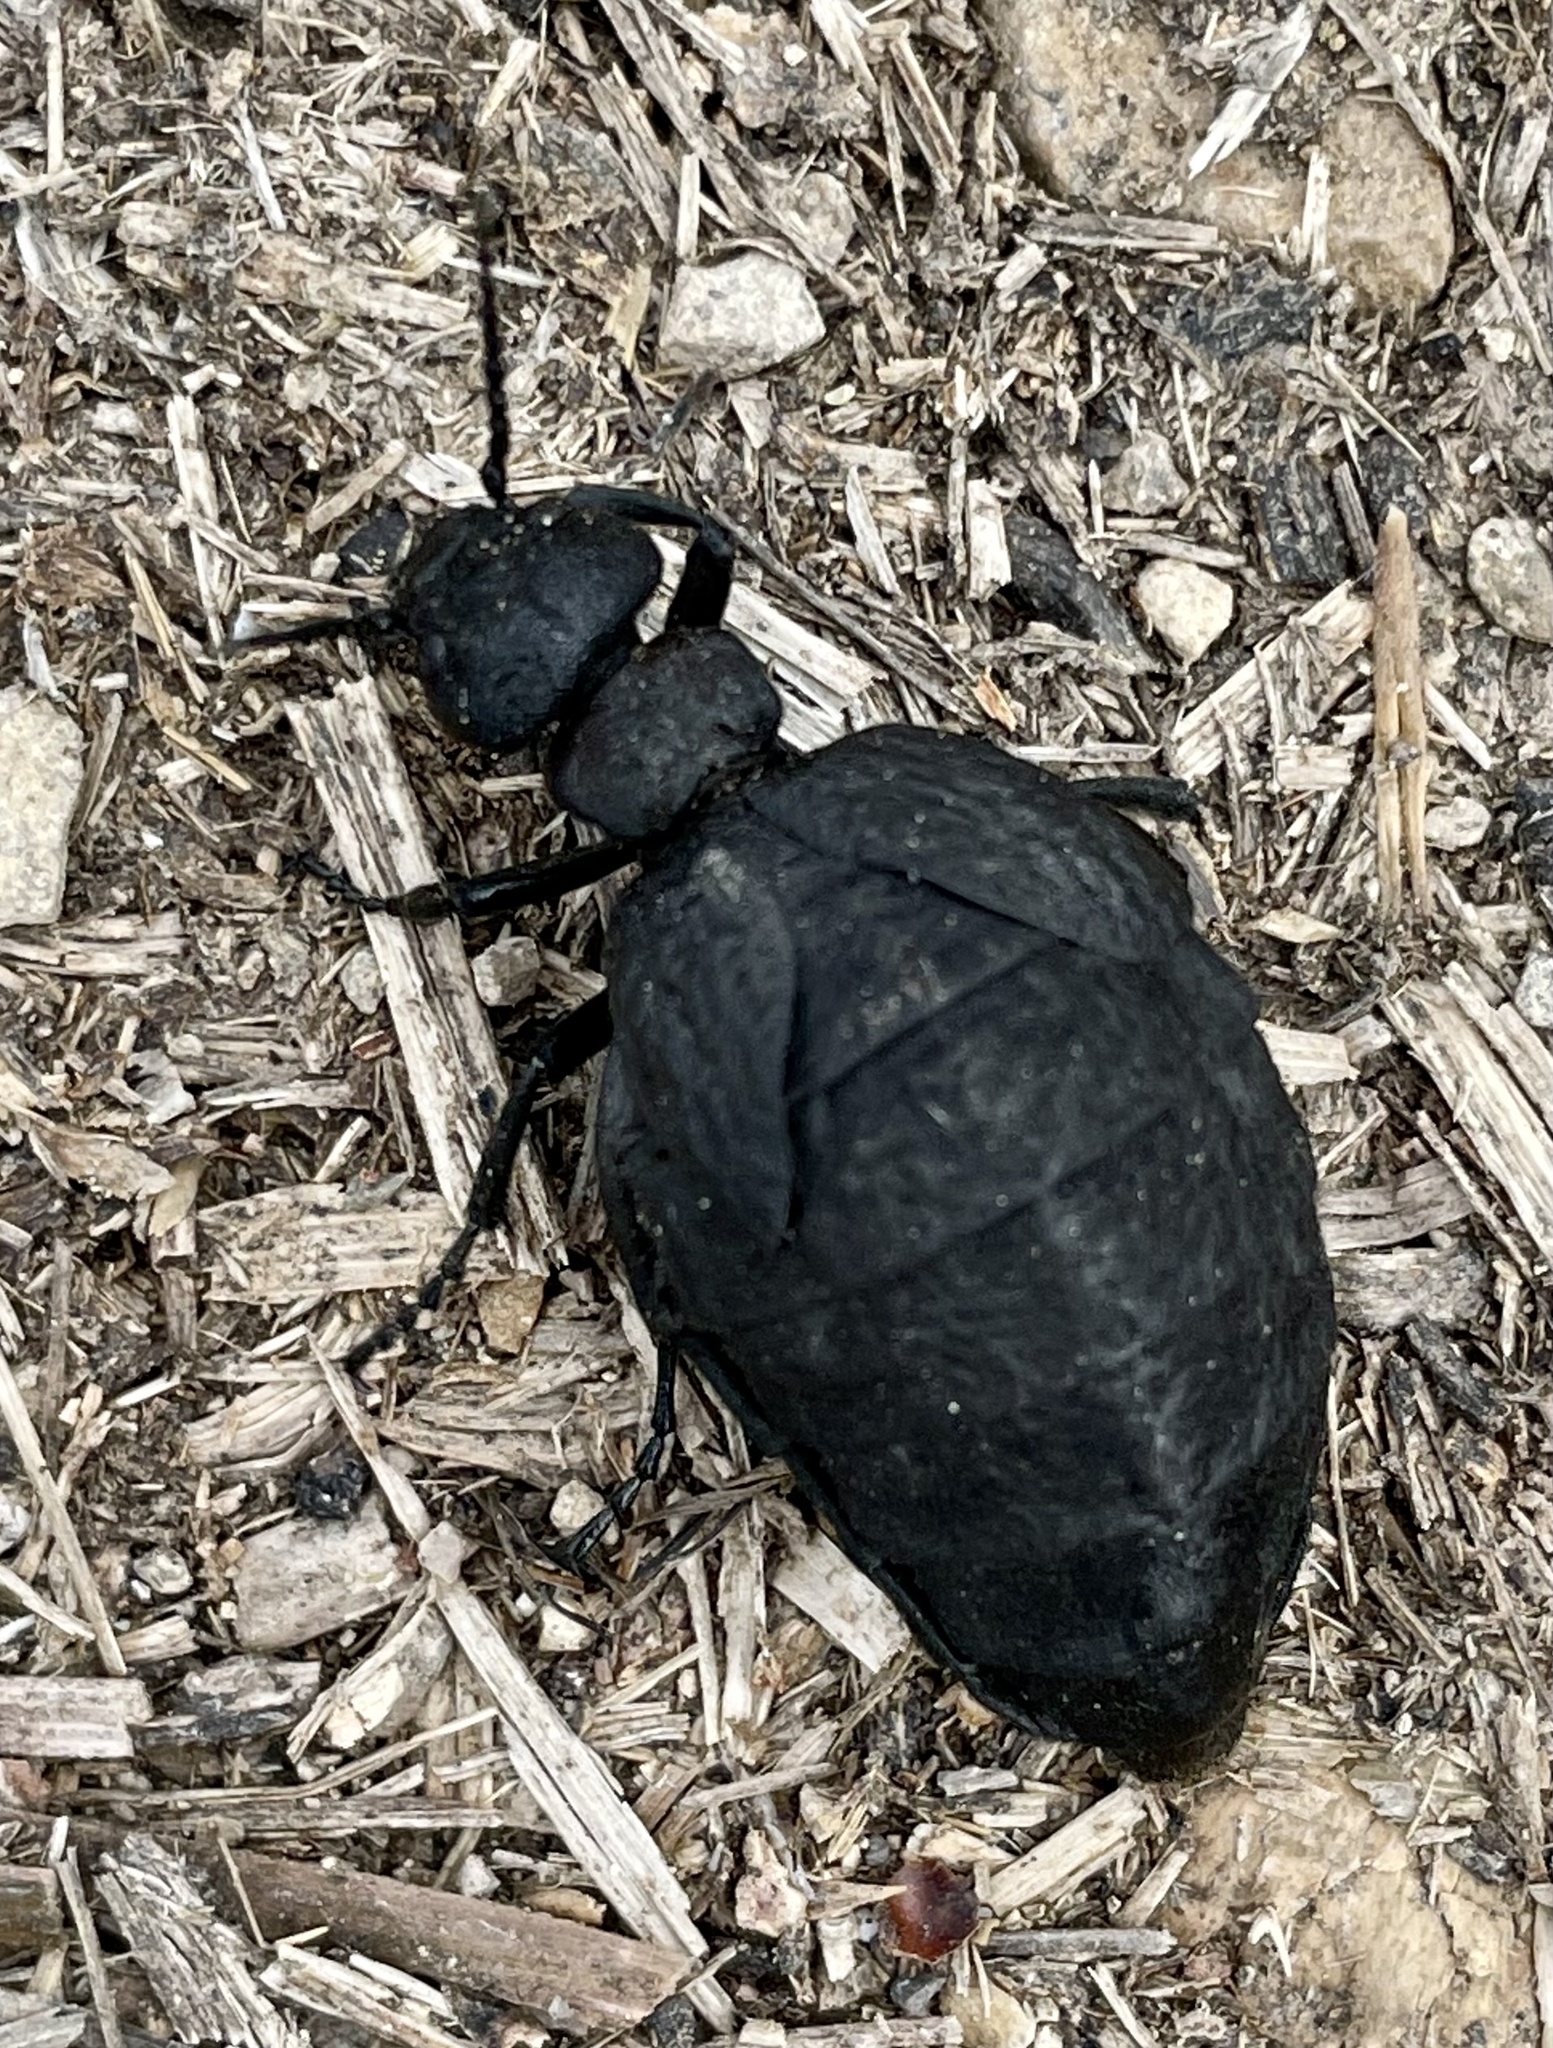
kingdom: Animalia
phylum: Arthropoda
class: Insecta
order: Coleoptera
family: Meloidae
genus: Meloe
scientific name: Meloe mediterraneus
